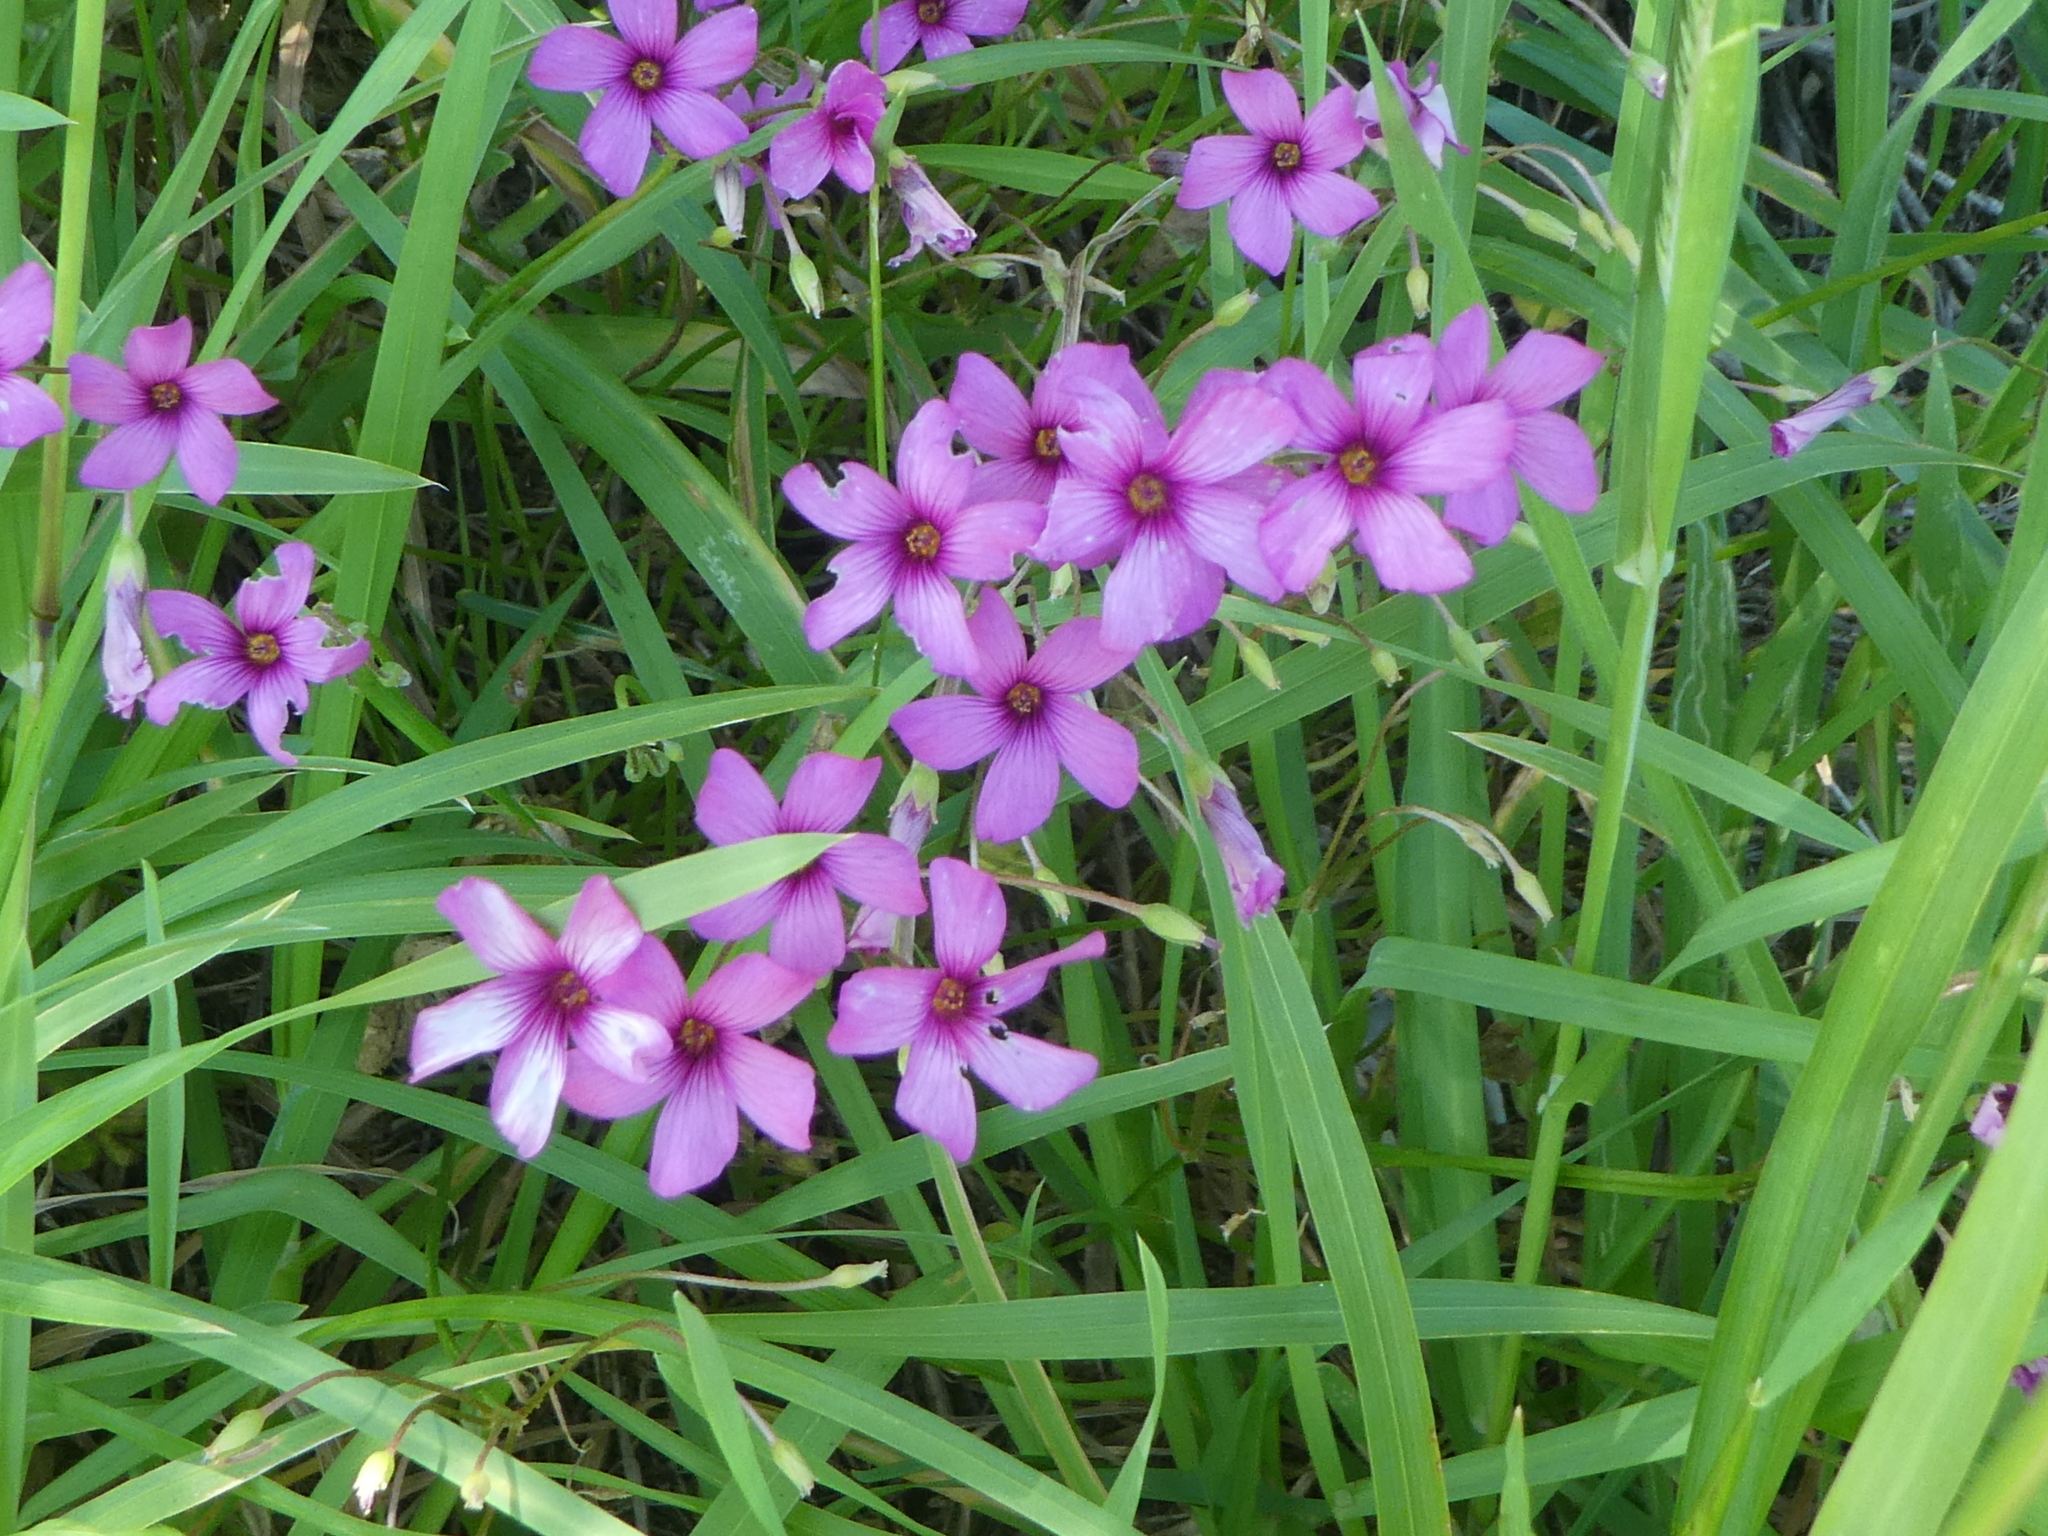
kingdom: Plantae
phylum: Tracheophyta
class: Magnoliopsida
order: Oxalidales
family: Oxalidaceae
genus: Oxalis
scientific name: Oxalis articulata
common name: Pink-sorrel
